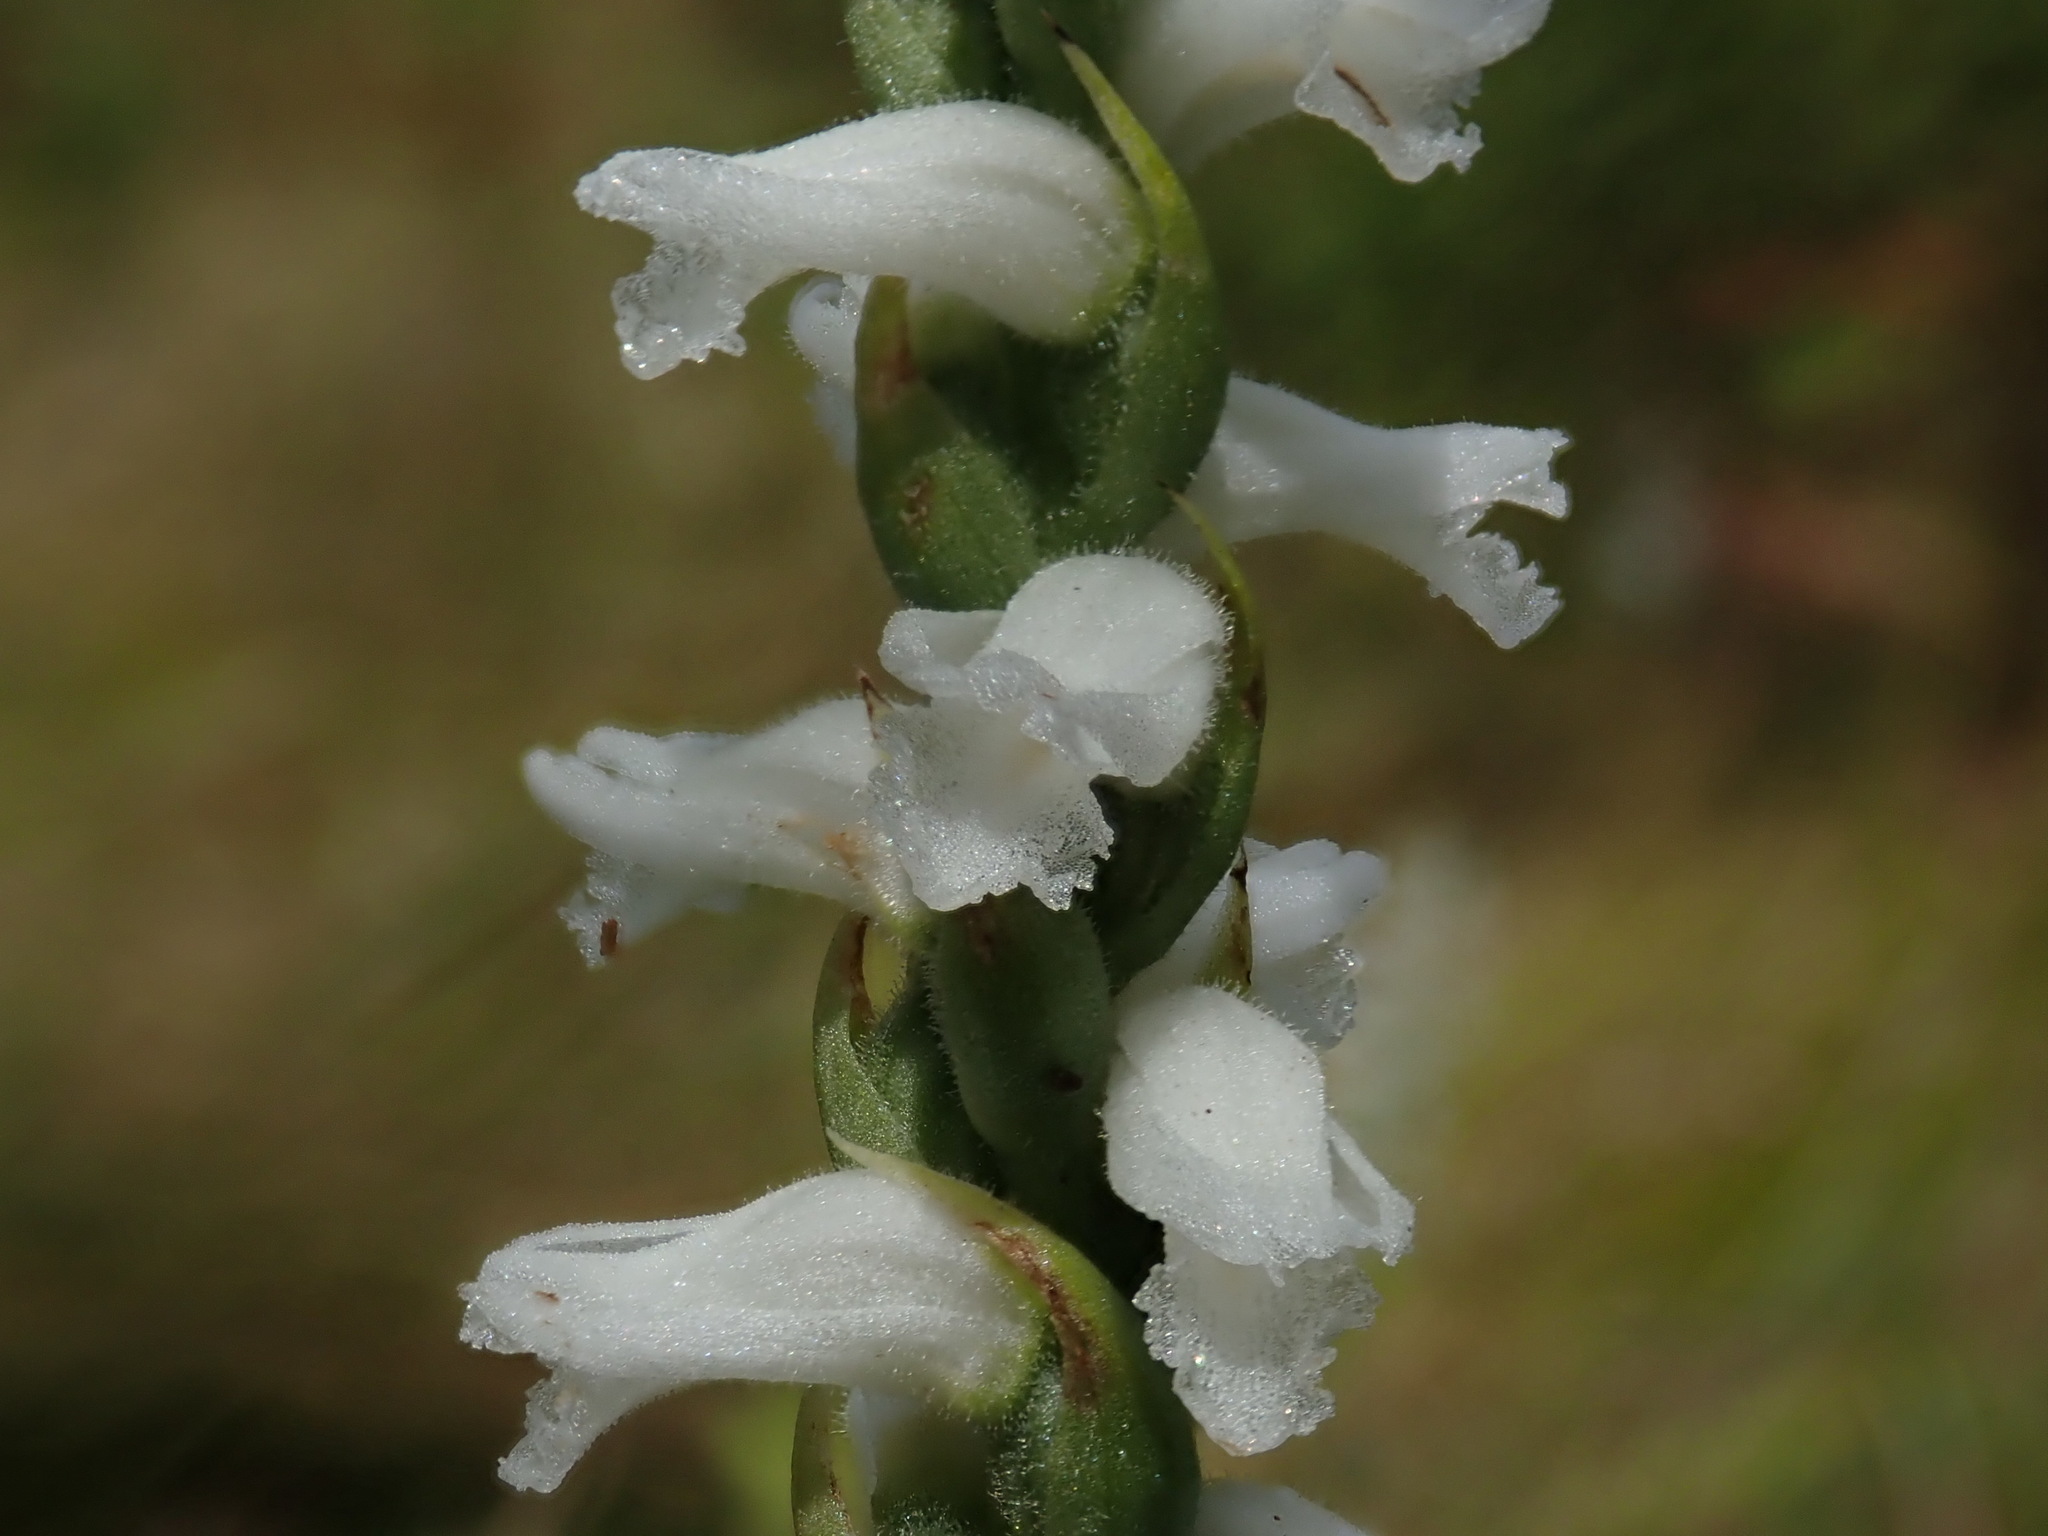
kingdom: Plantae
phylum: Tracheophyta
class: Liliopsida
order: Asparagales
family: Orchidaceae
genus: Spiranthes
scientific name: Spiranthes
